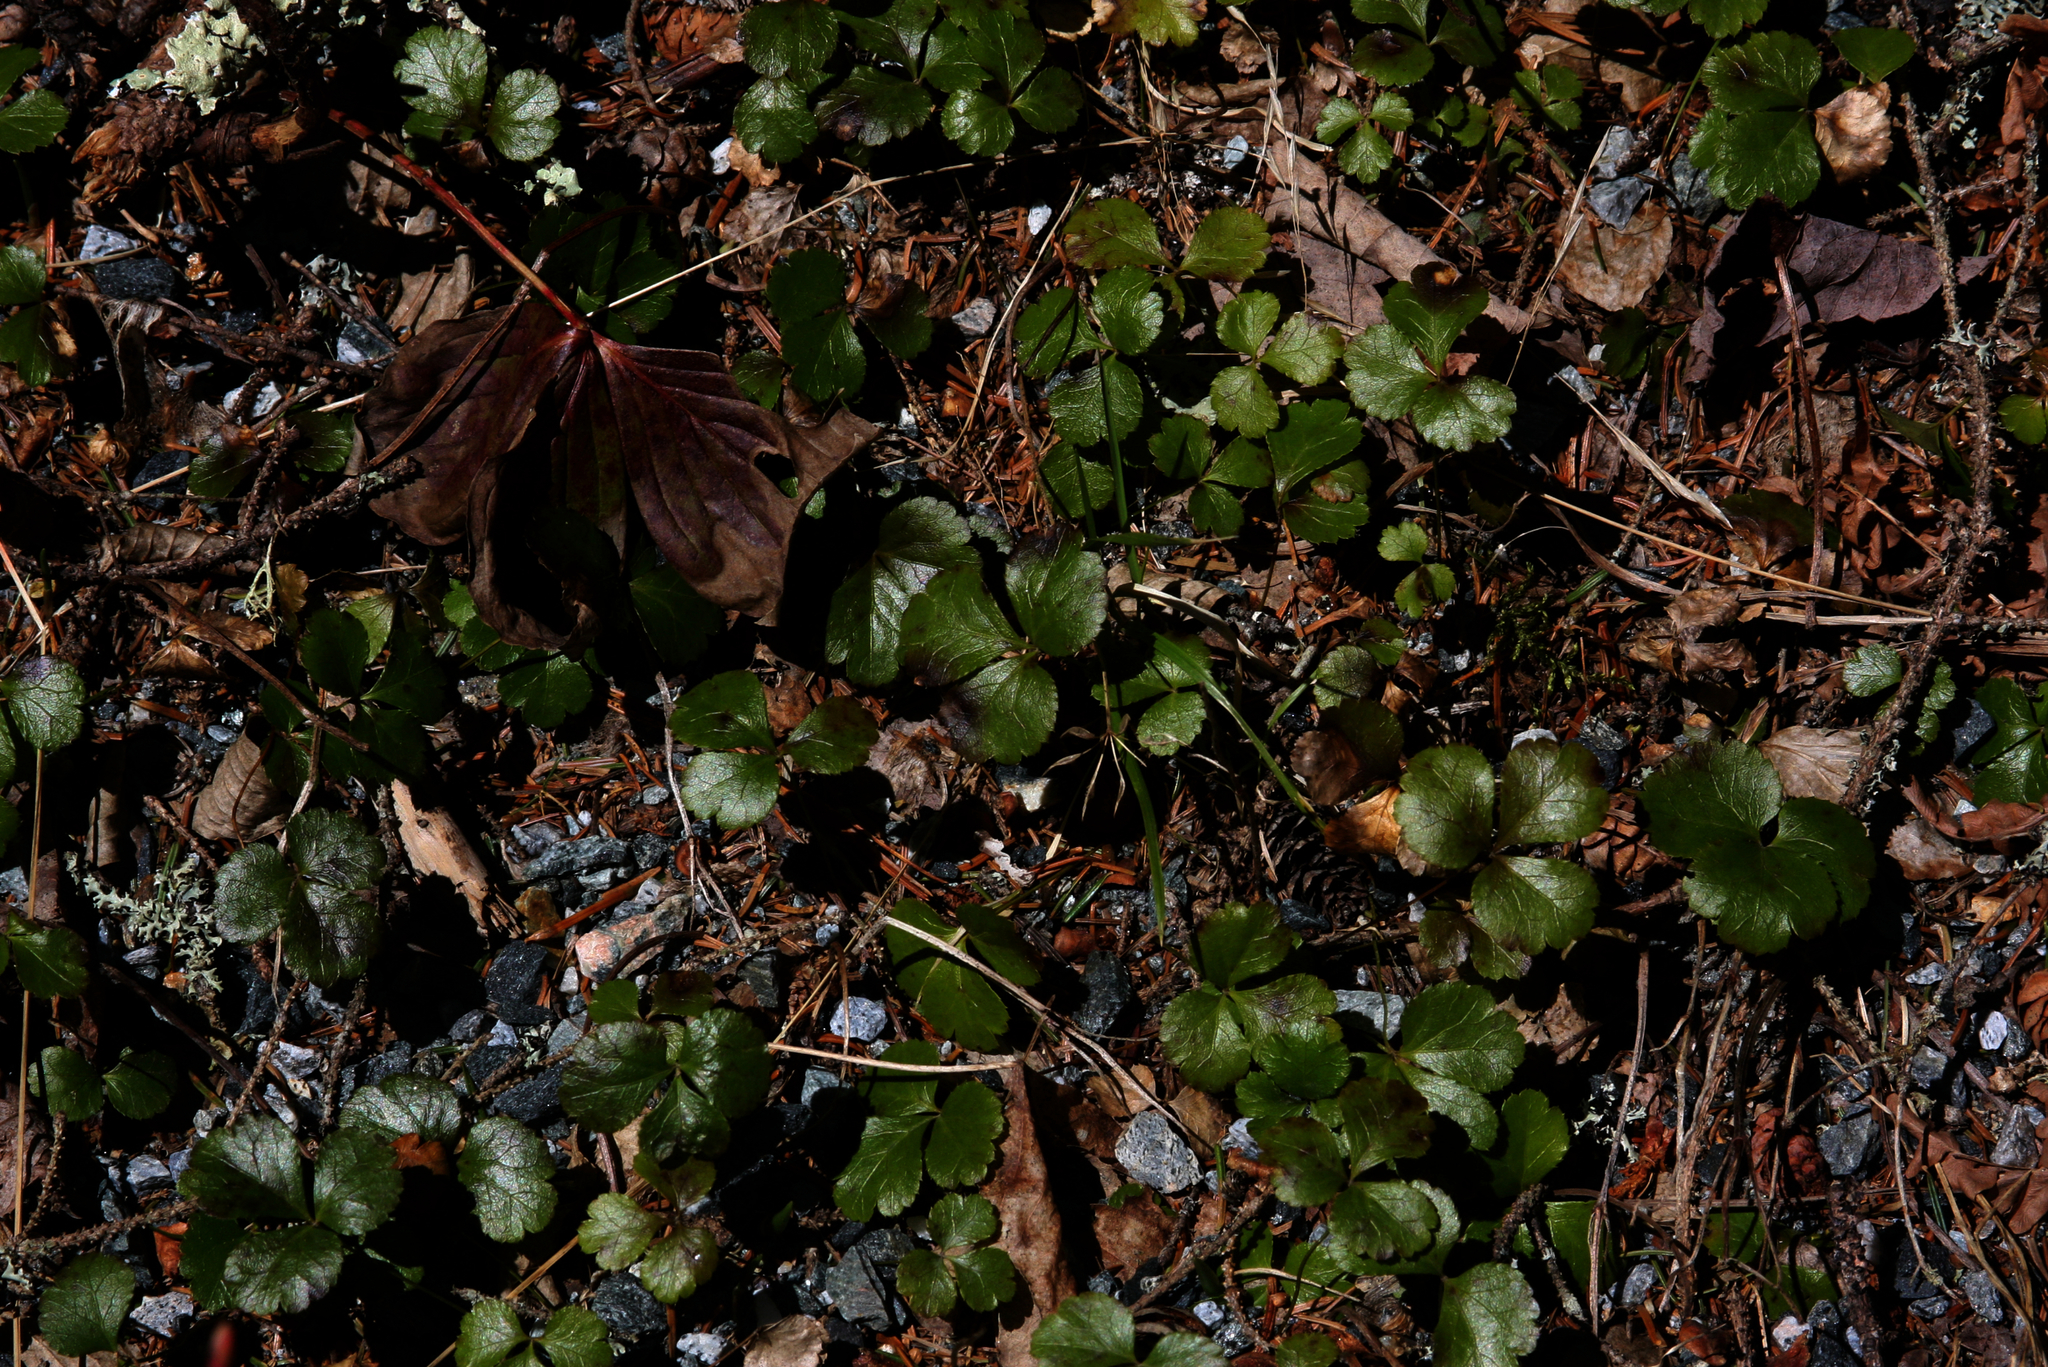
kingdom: Plantae
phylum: Tracheophyta
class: Magnoliopsida
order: Ranunculales
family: Ranunculaceae
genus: Coptis
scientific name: Coptis trifolia
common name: Canker-root
